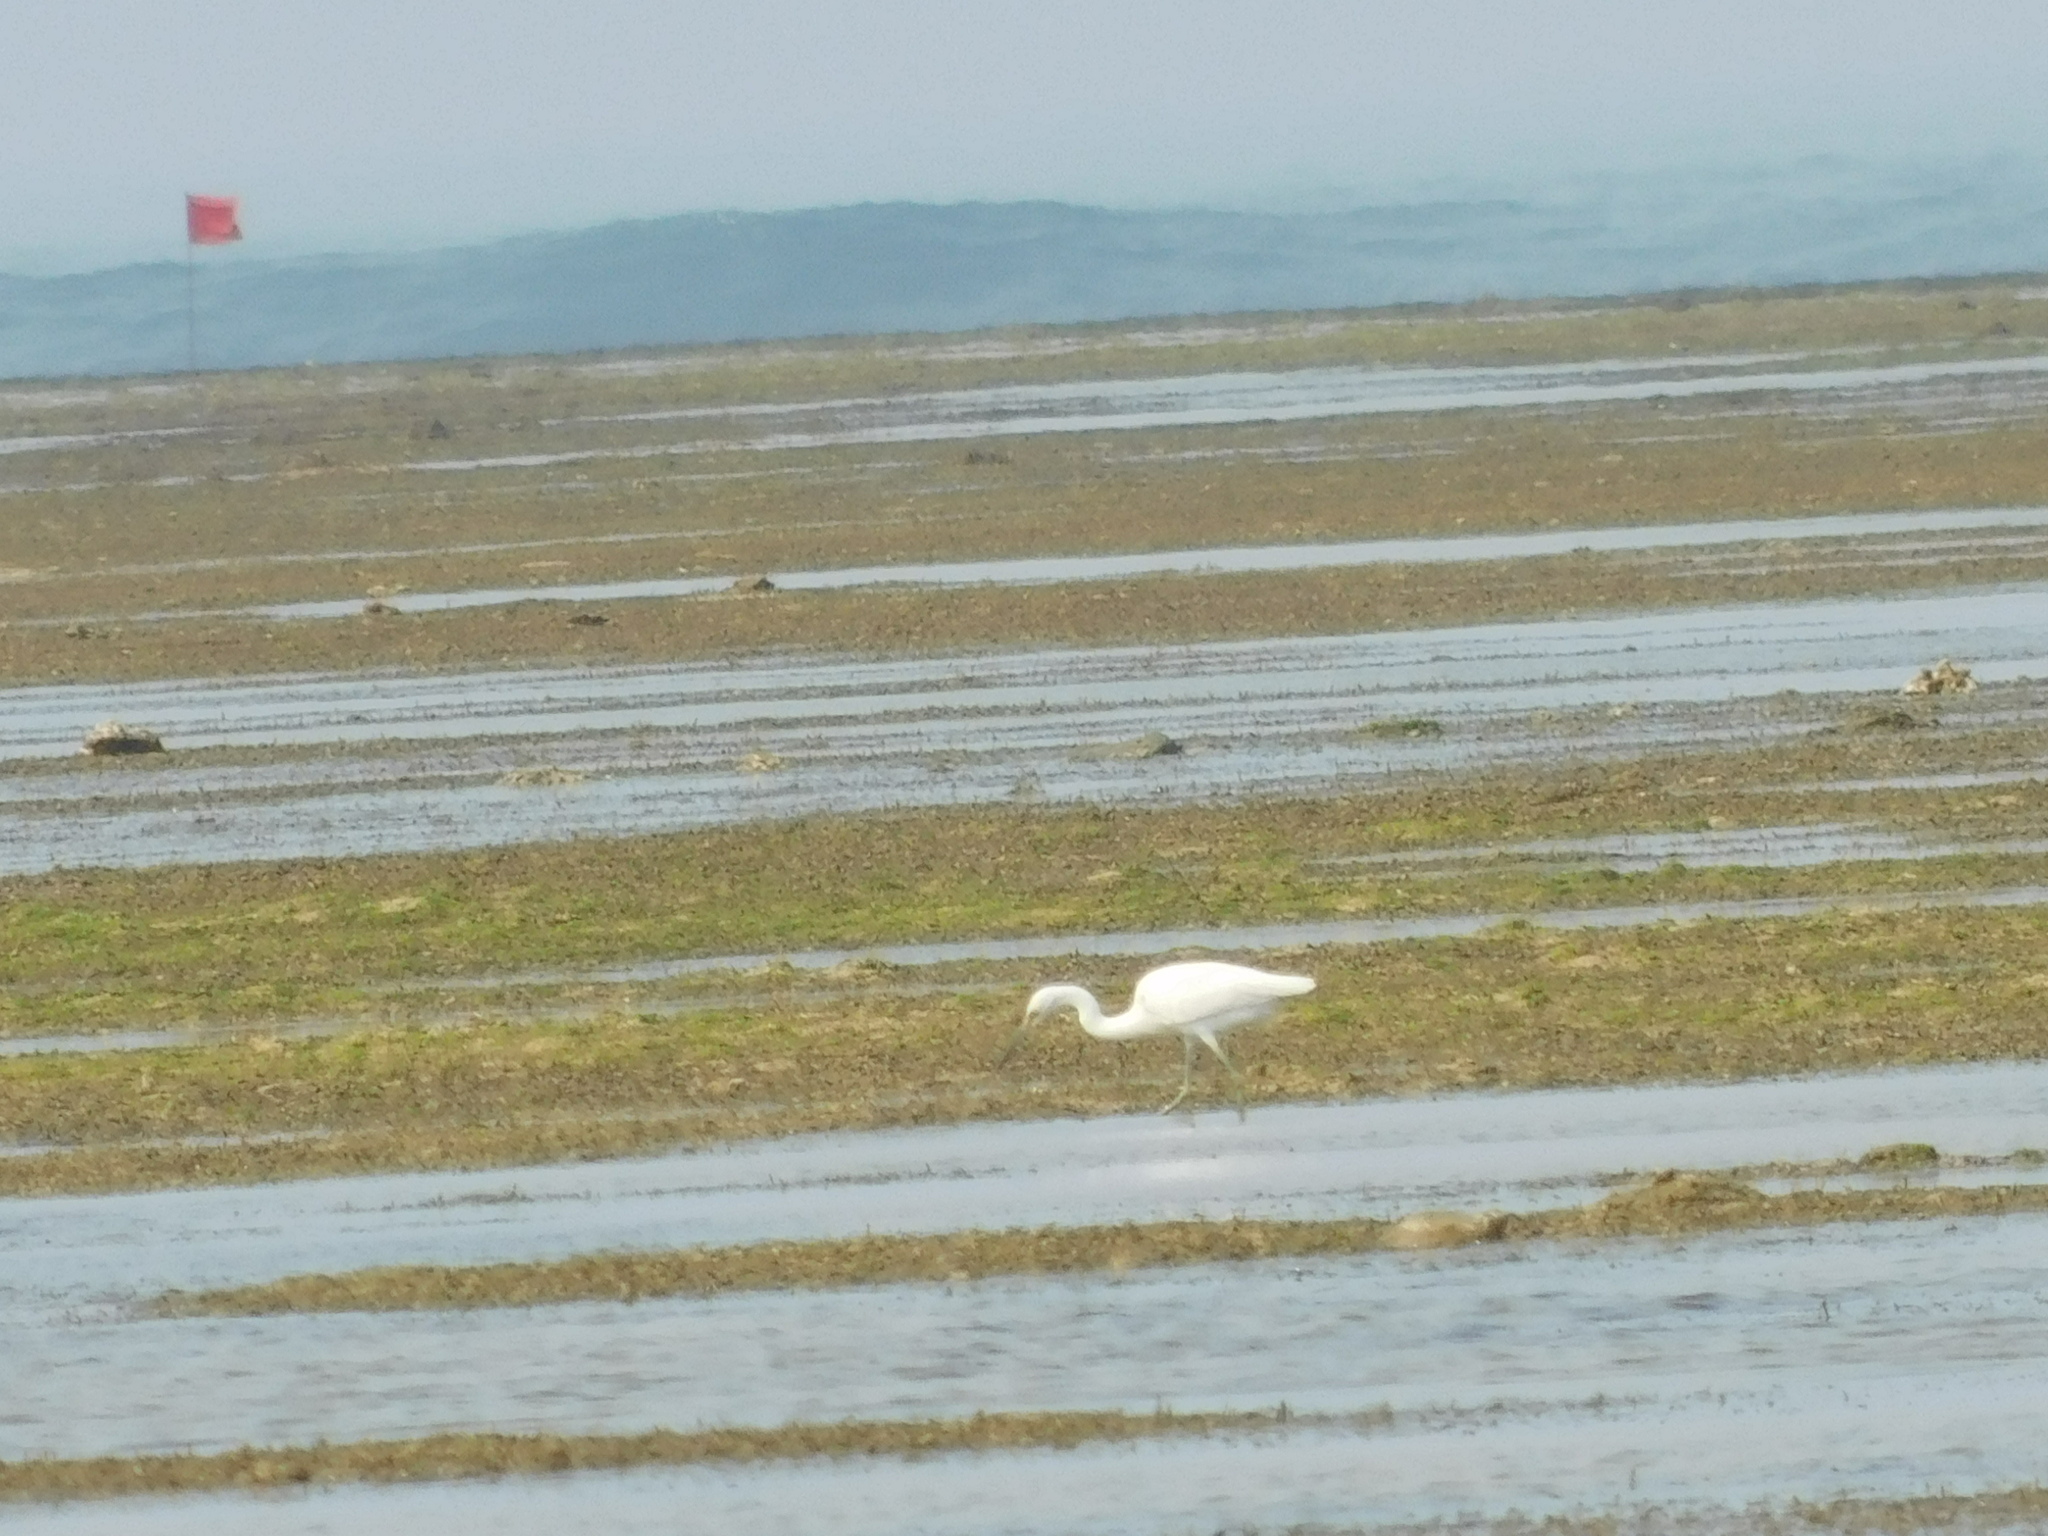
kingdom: Animalia
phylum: Chordata
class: Aves
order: Pelecaniformes
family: Ardeidae
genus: Egretta
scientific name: Egretta intermedia
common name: Intermediate egret
